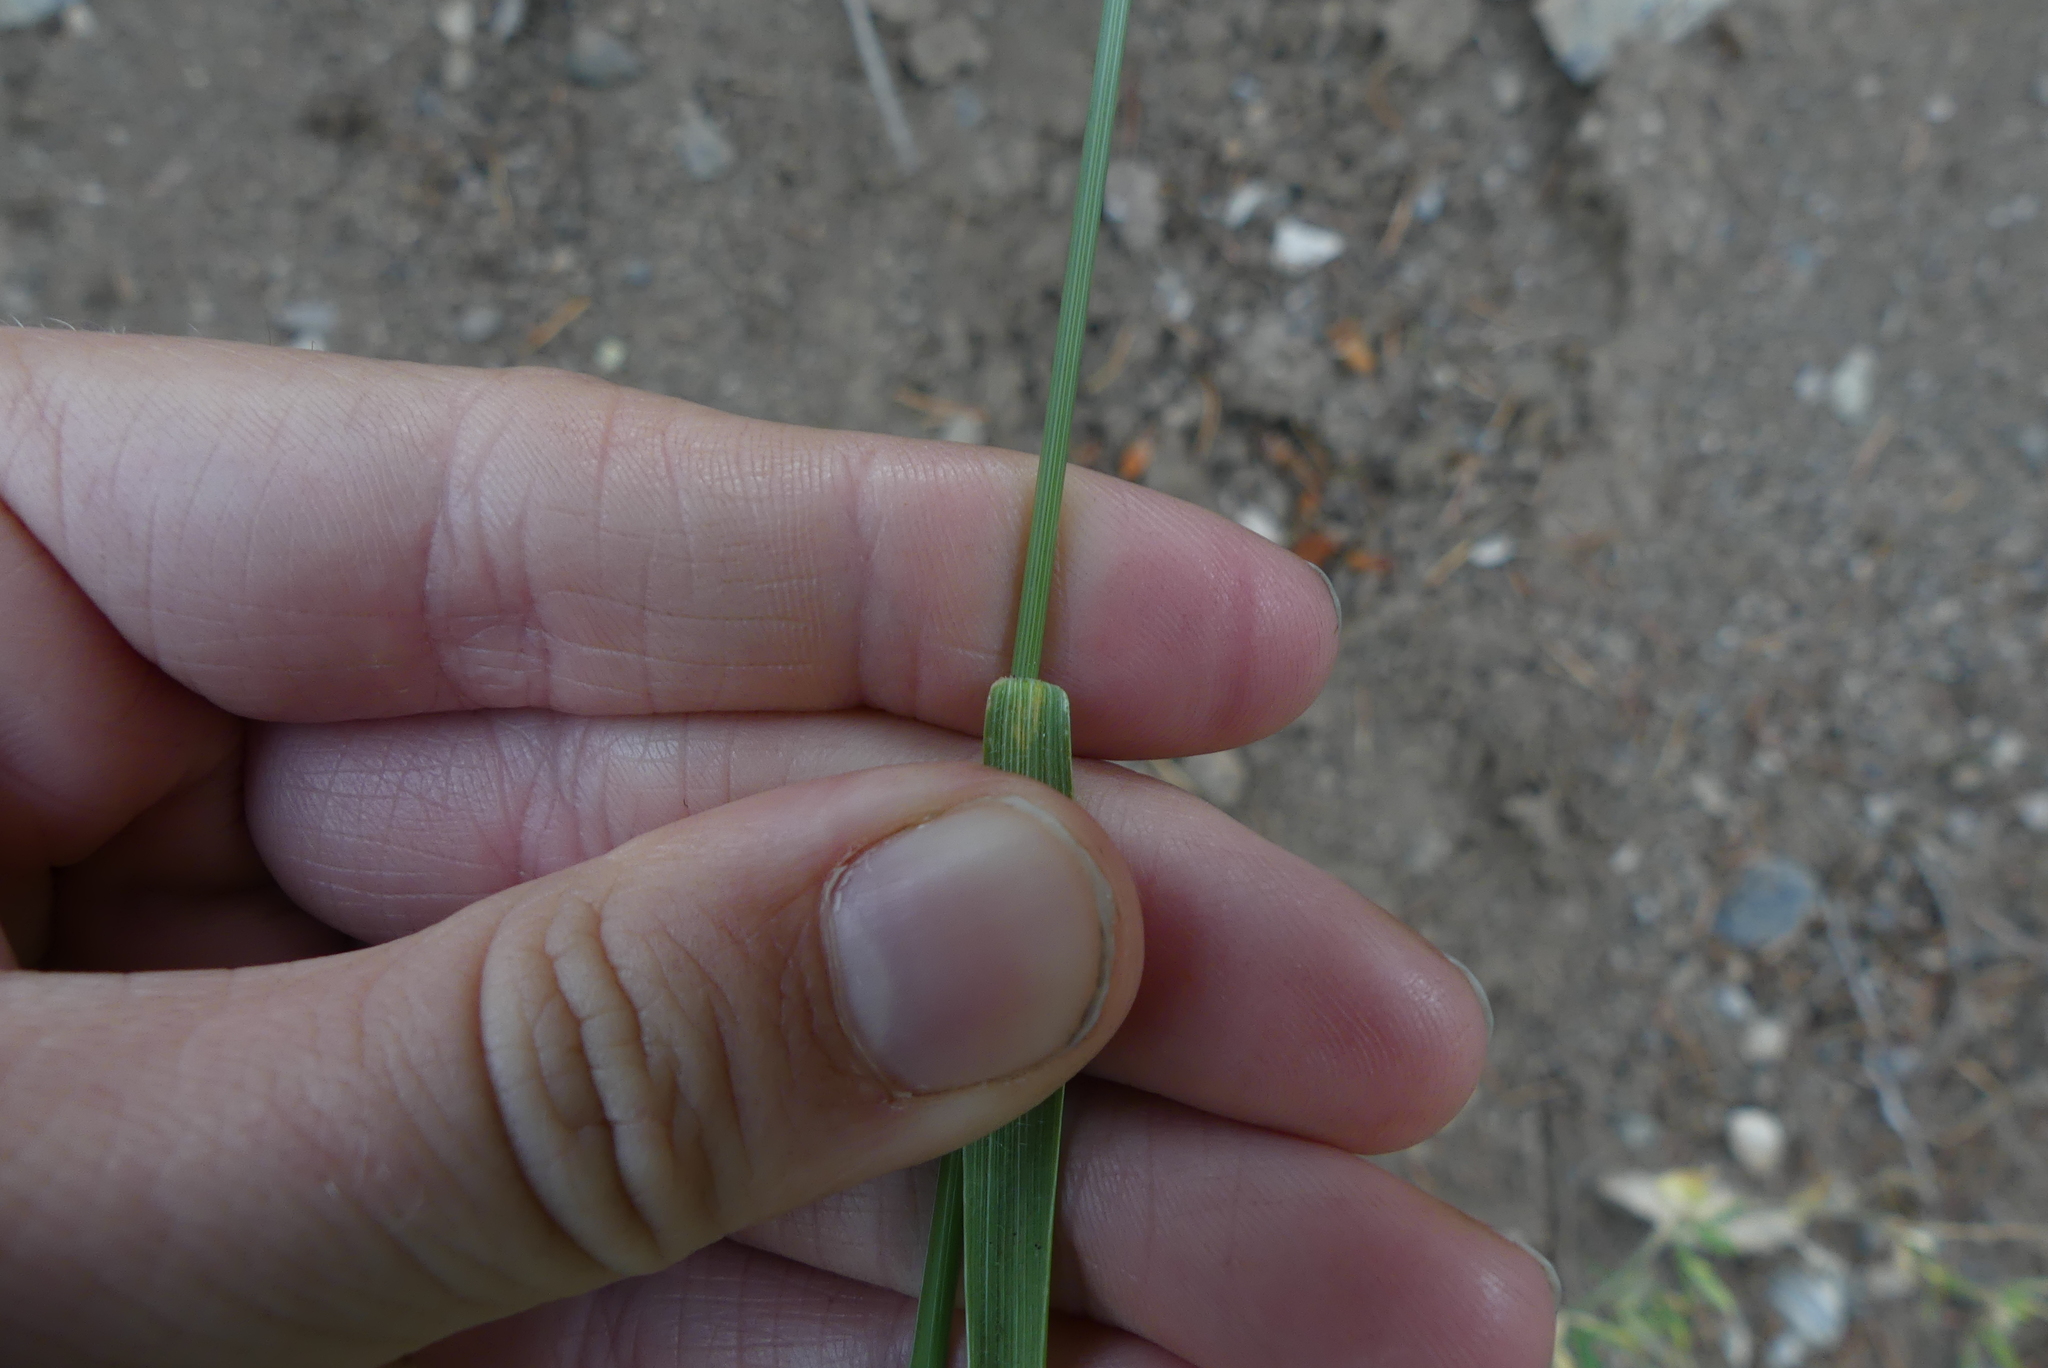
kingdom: Plantae
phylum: Tracheophyta
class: Liliopsida
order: Poales
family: Poaceae
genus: Agropyron
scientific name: Agropyron cristatum
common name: Crested wheatgrass
